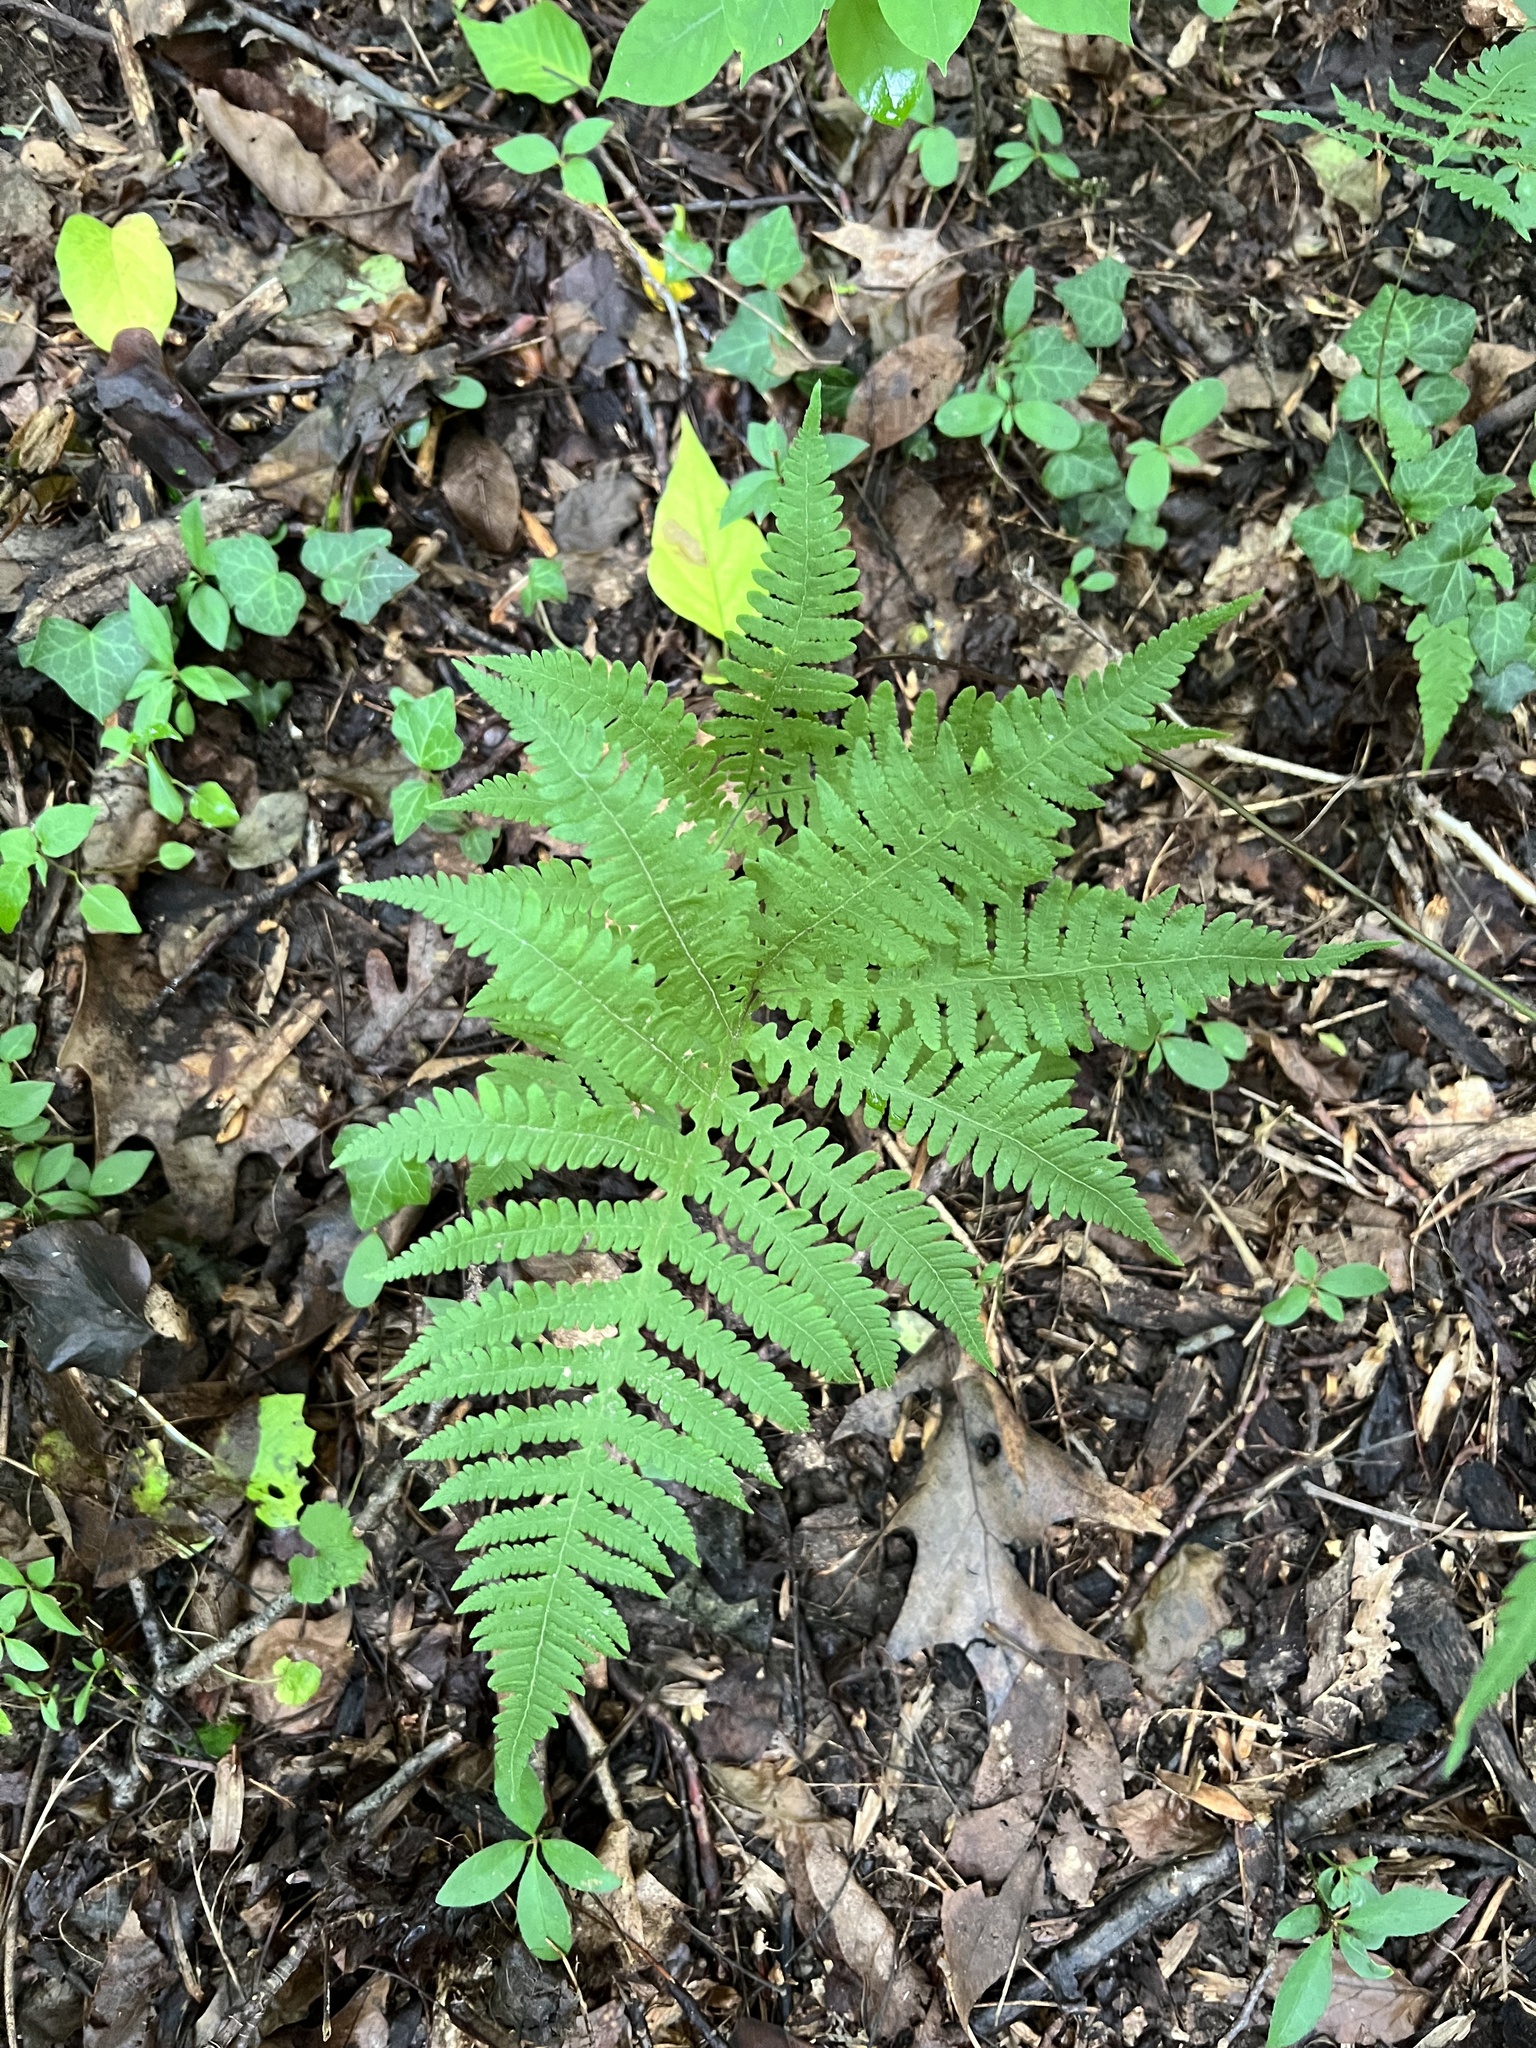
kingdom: Plantae
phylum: Tracheophyta
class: Polypodiopsida
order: Polypodiales
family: Thelypteridaceae
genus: Phegopteris
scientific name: Phegopteris hexagonoptera
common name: Broad beech fern
